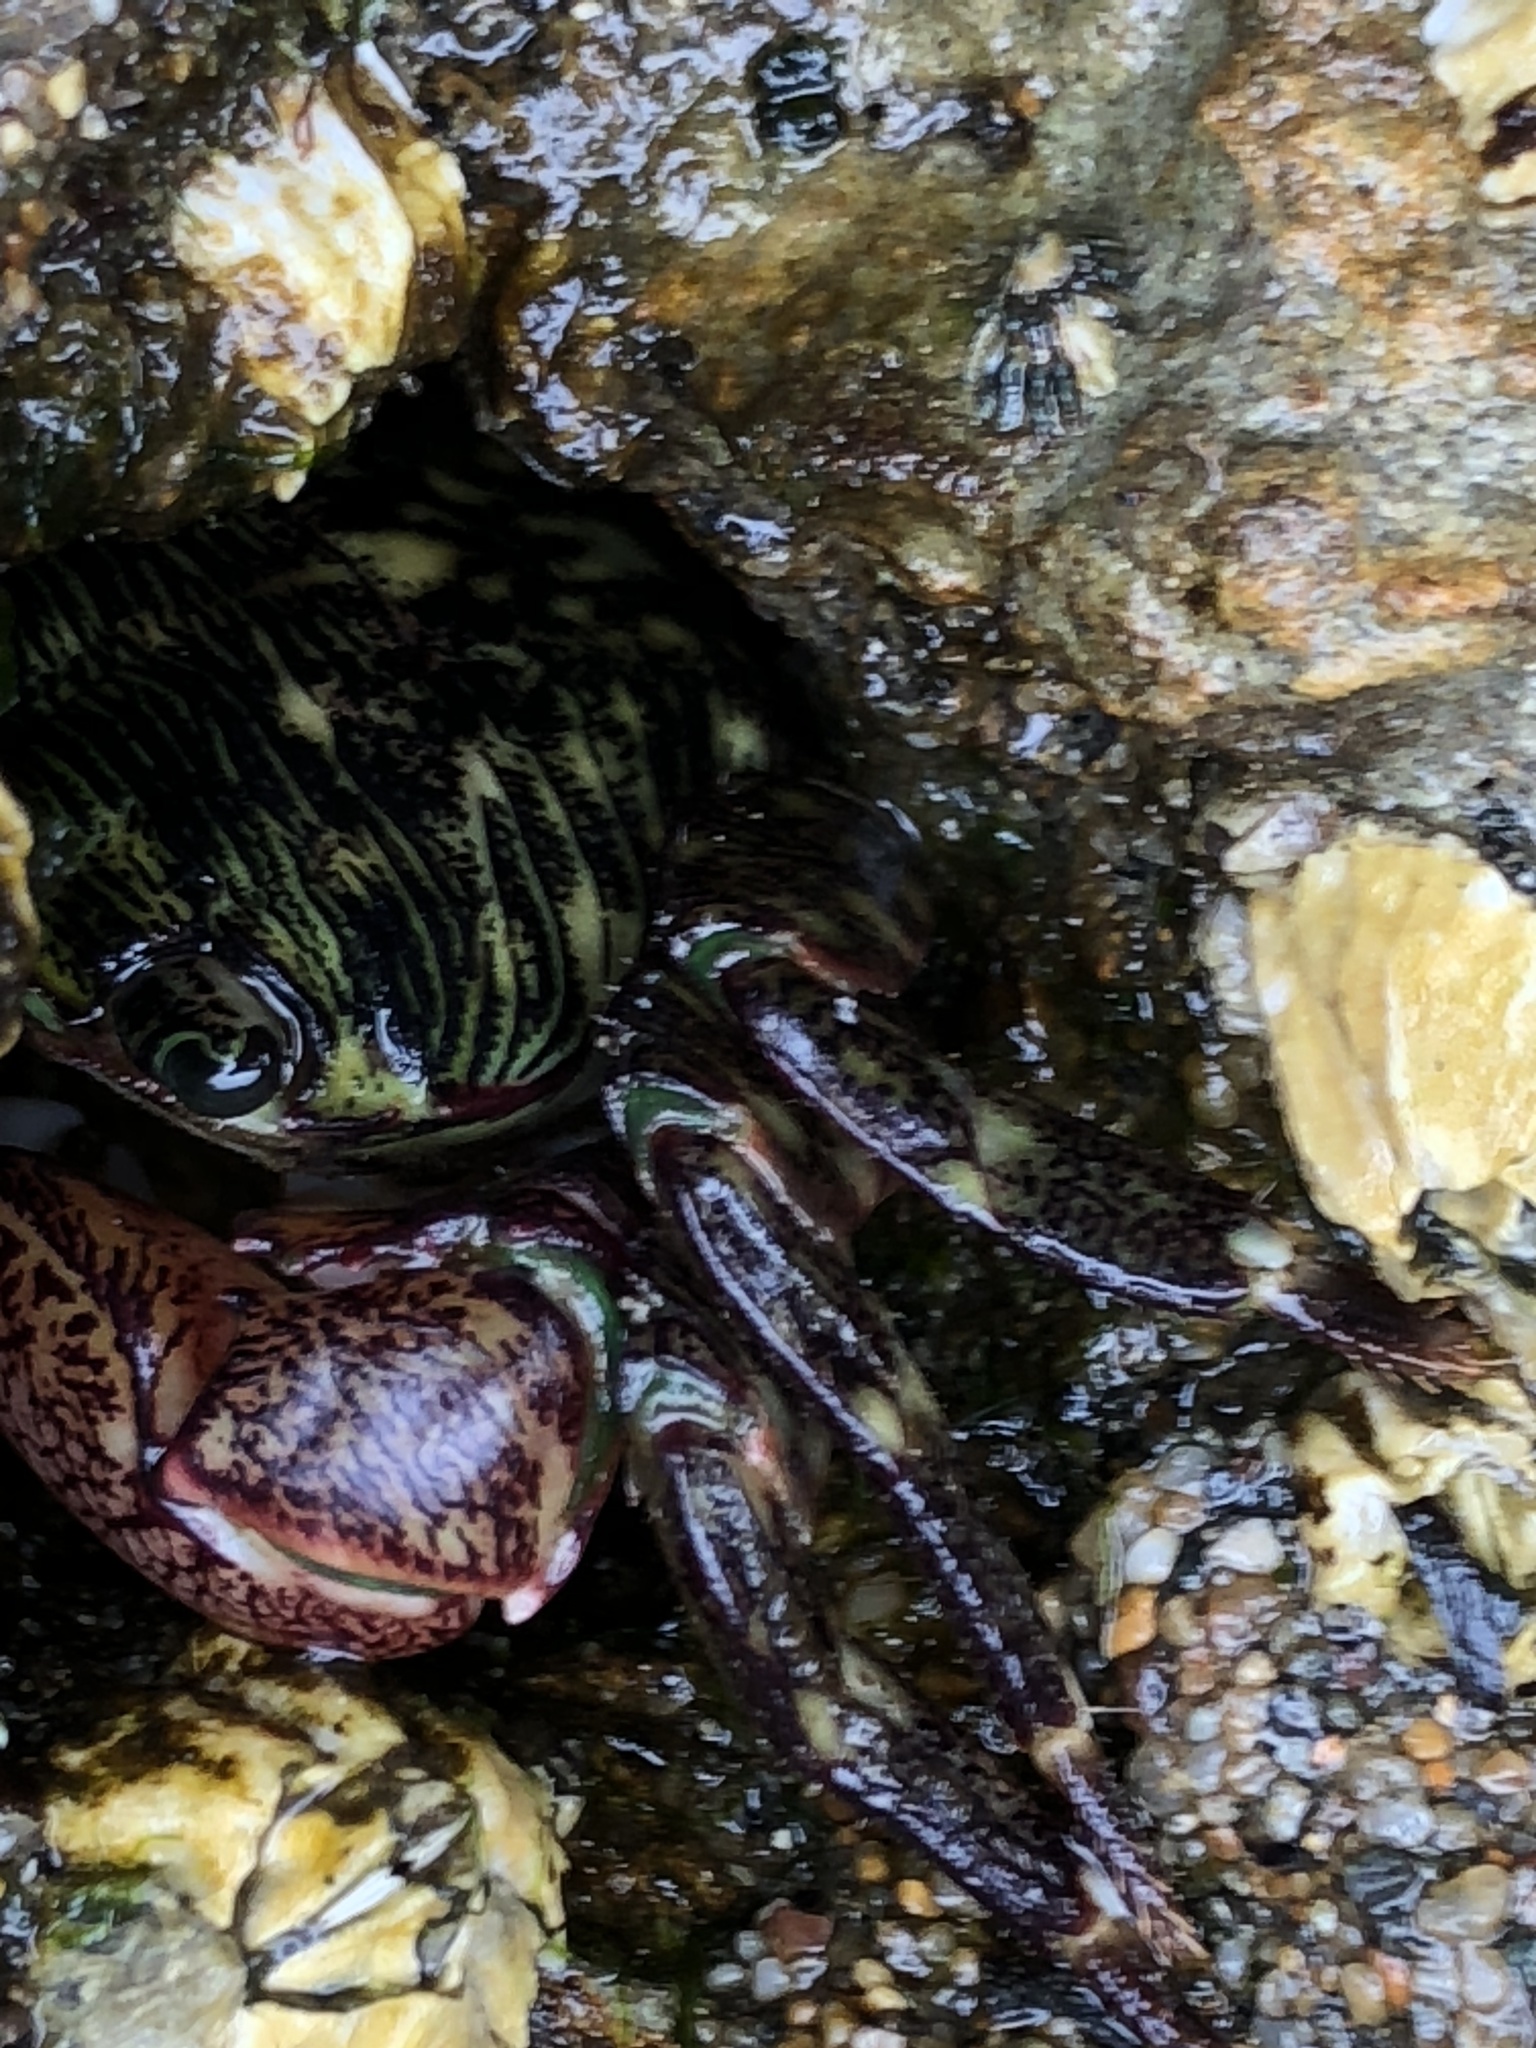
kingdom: Animalia
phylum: Arthropoda
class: Malacostraca
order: Decapoda
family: Grapsidae
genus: Pachygrapsus
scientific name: Pachygrapsus crassipes
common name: Striped shore crab
